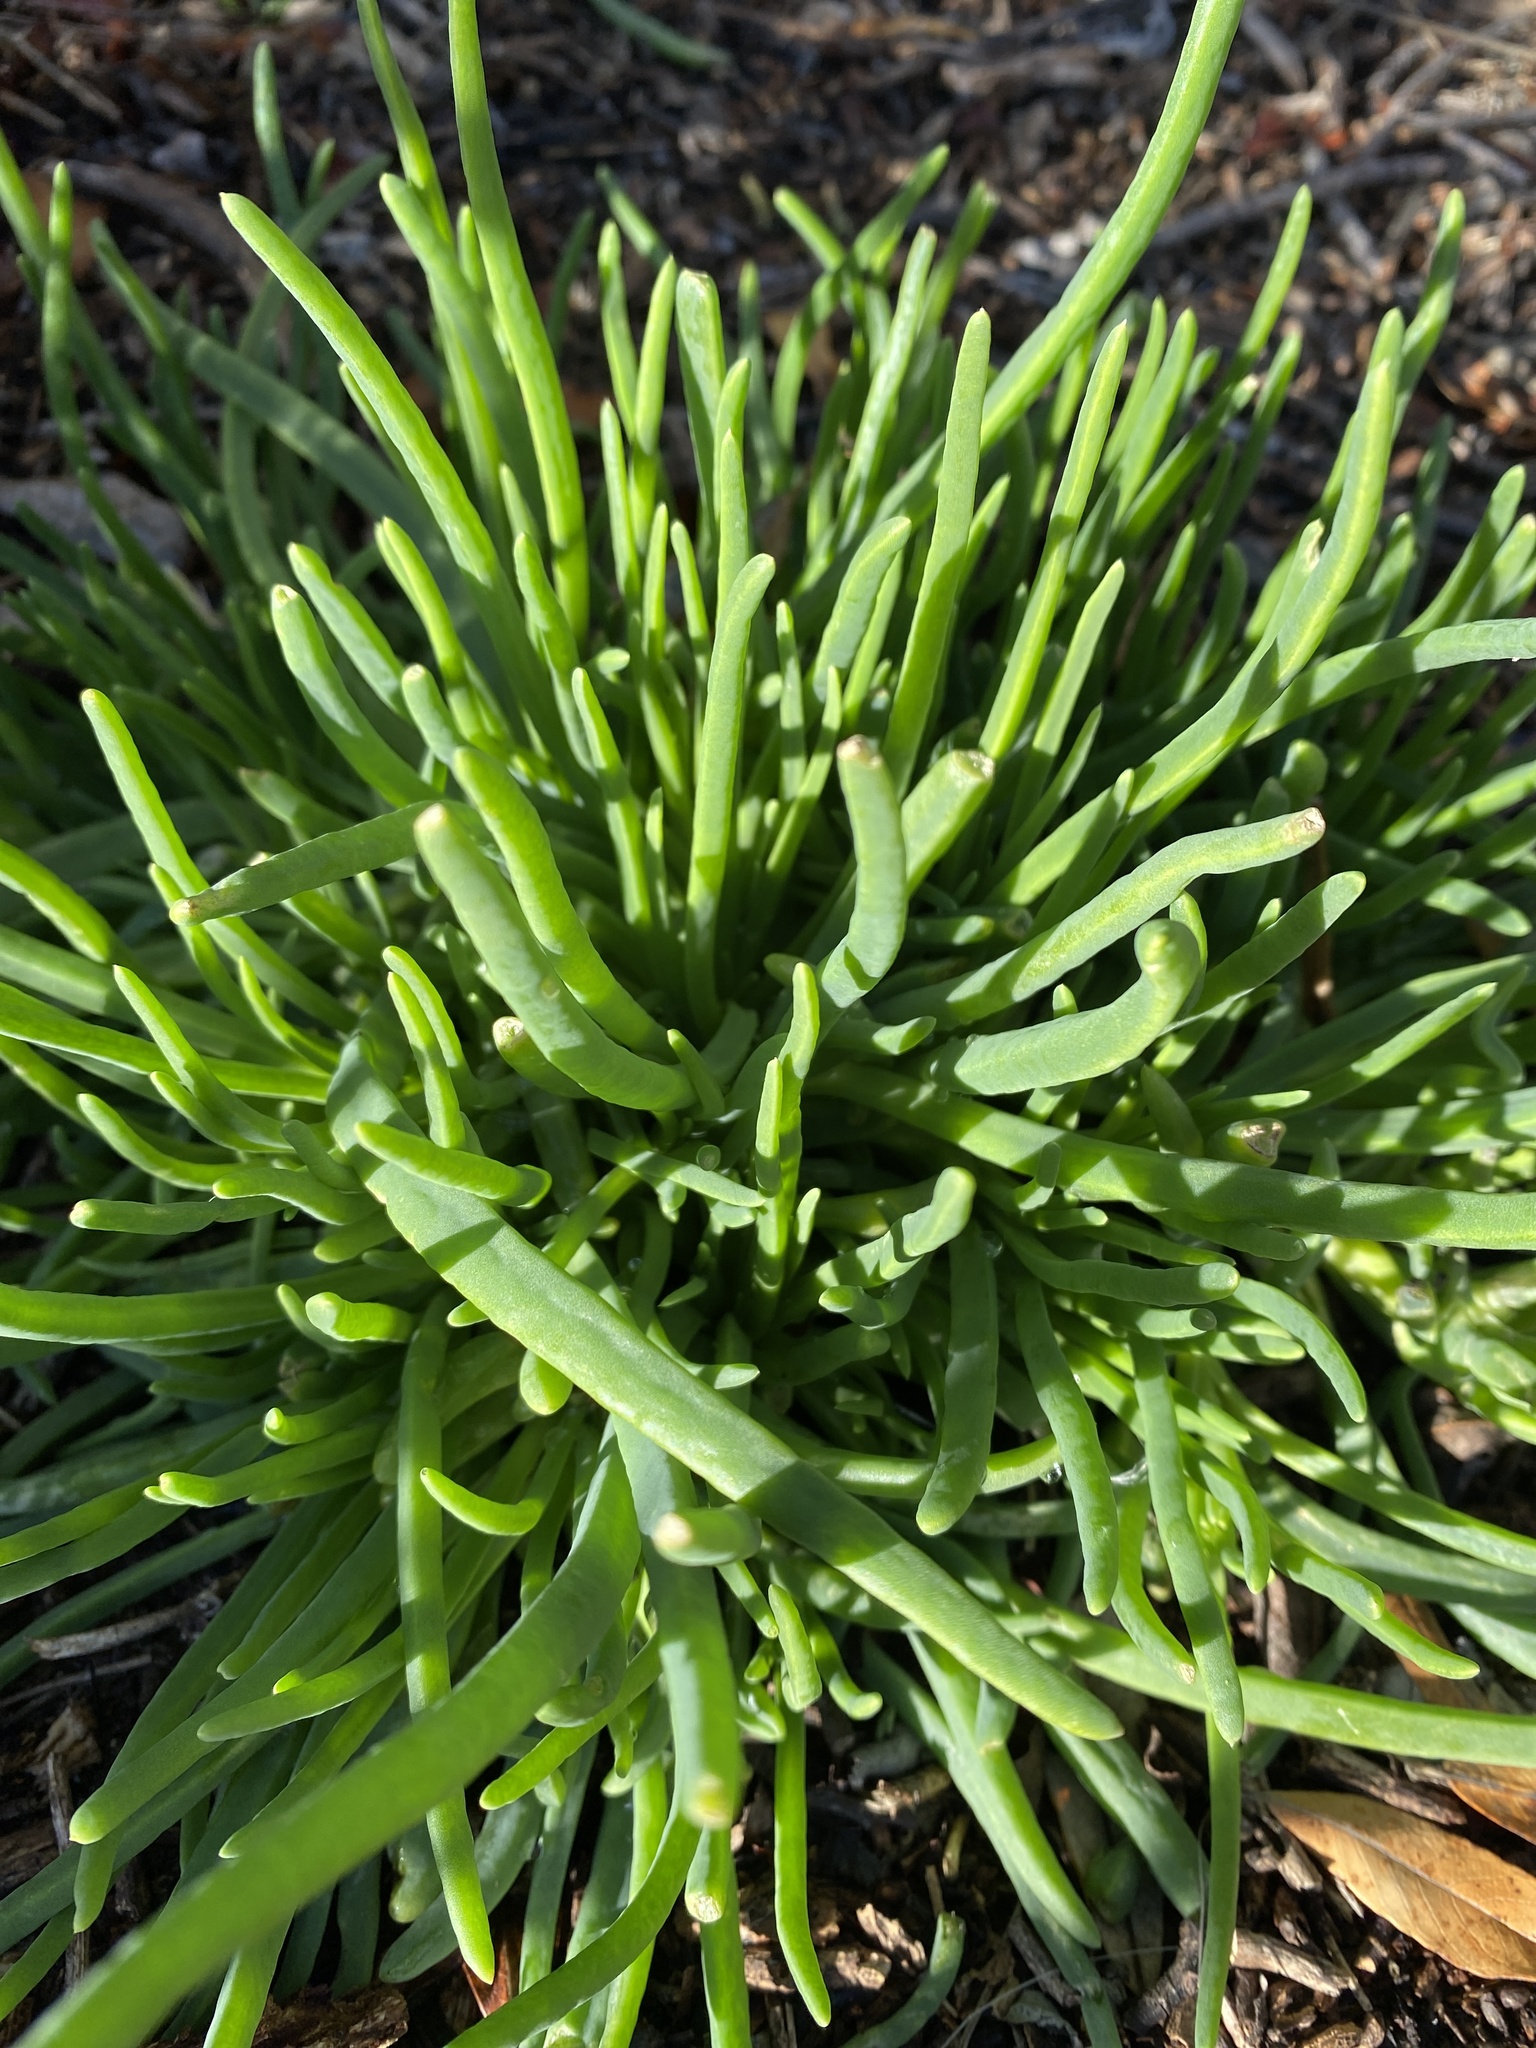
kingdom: Plantae
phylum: Tracheophyta
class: Magnoliopsida
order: Caryophyllales
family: Aizoaceae
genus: Conicosia
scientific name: Conicosia pugioniformis
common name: Narrow-leaved iceplant
